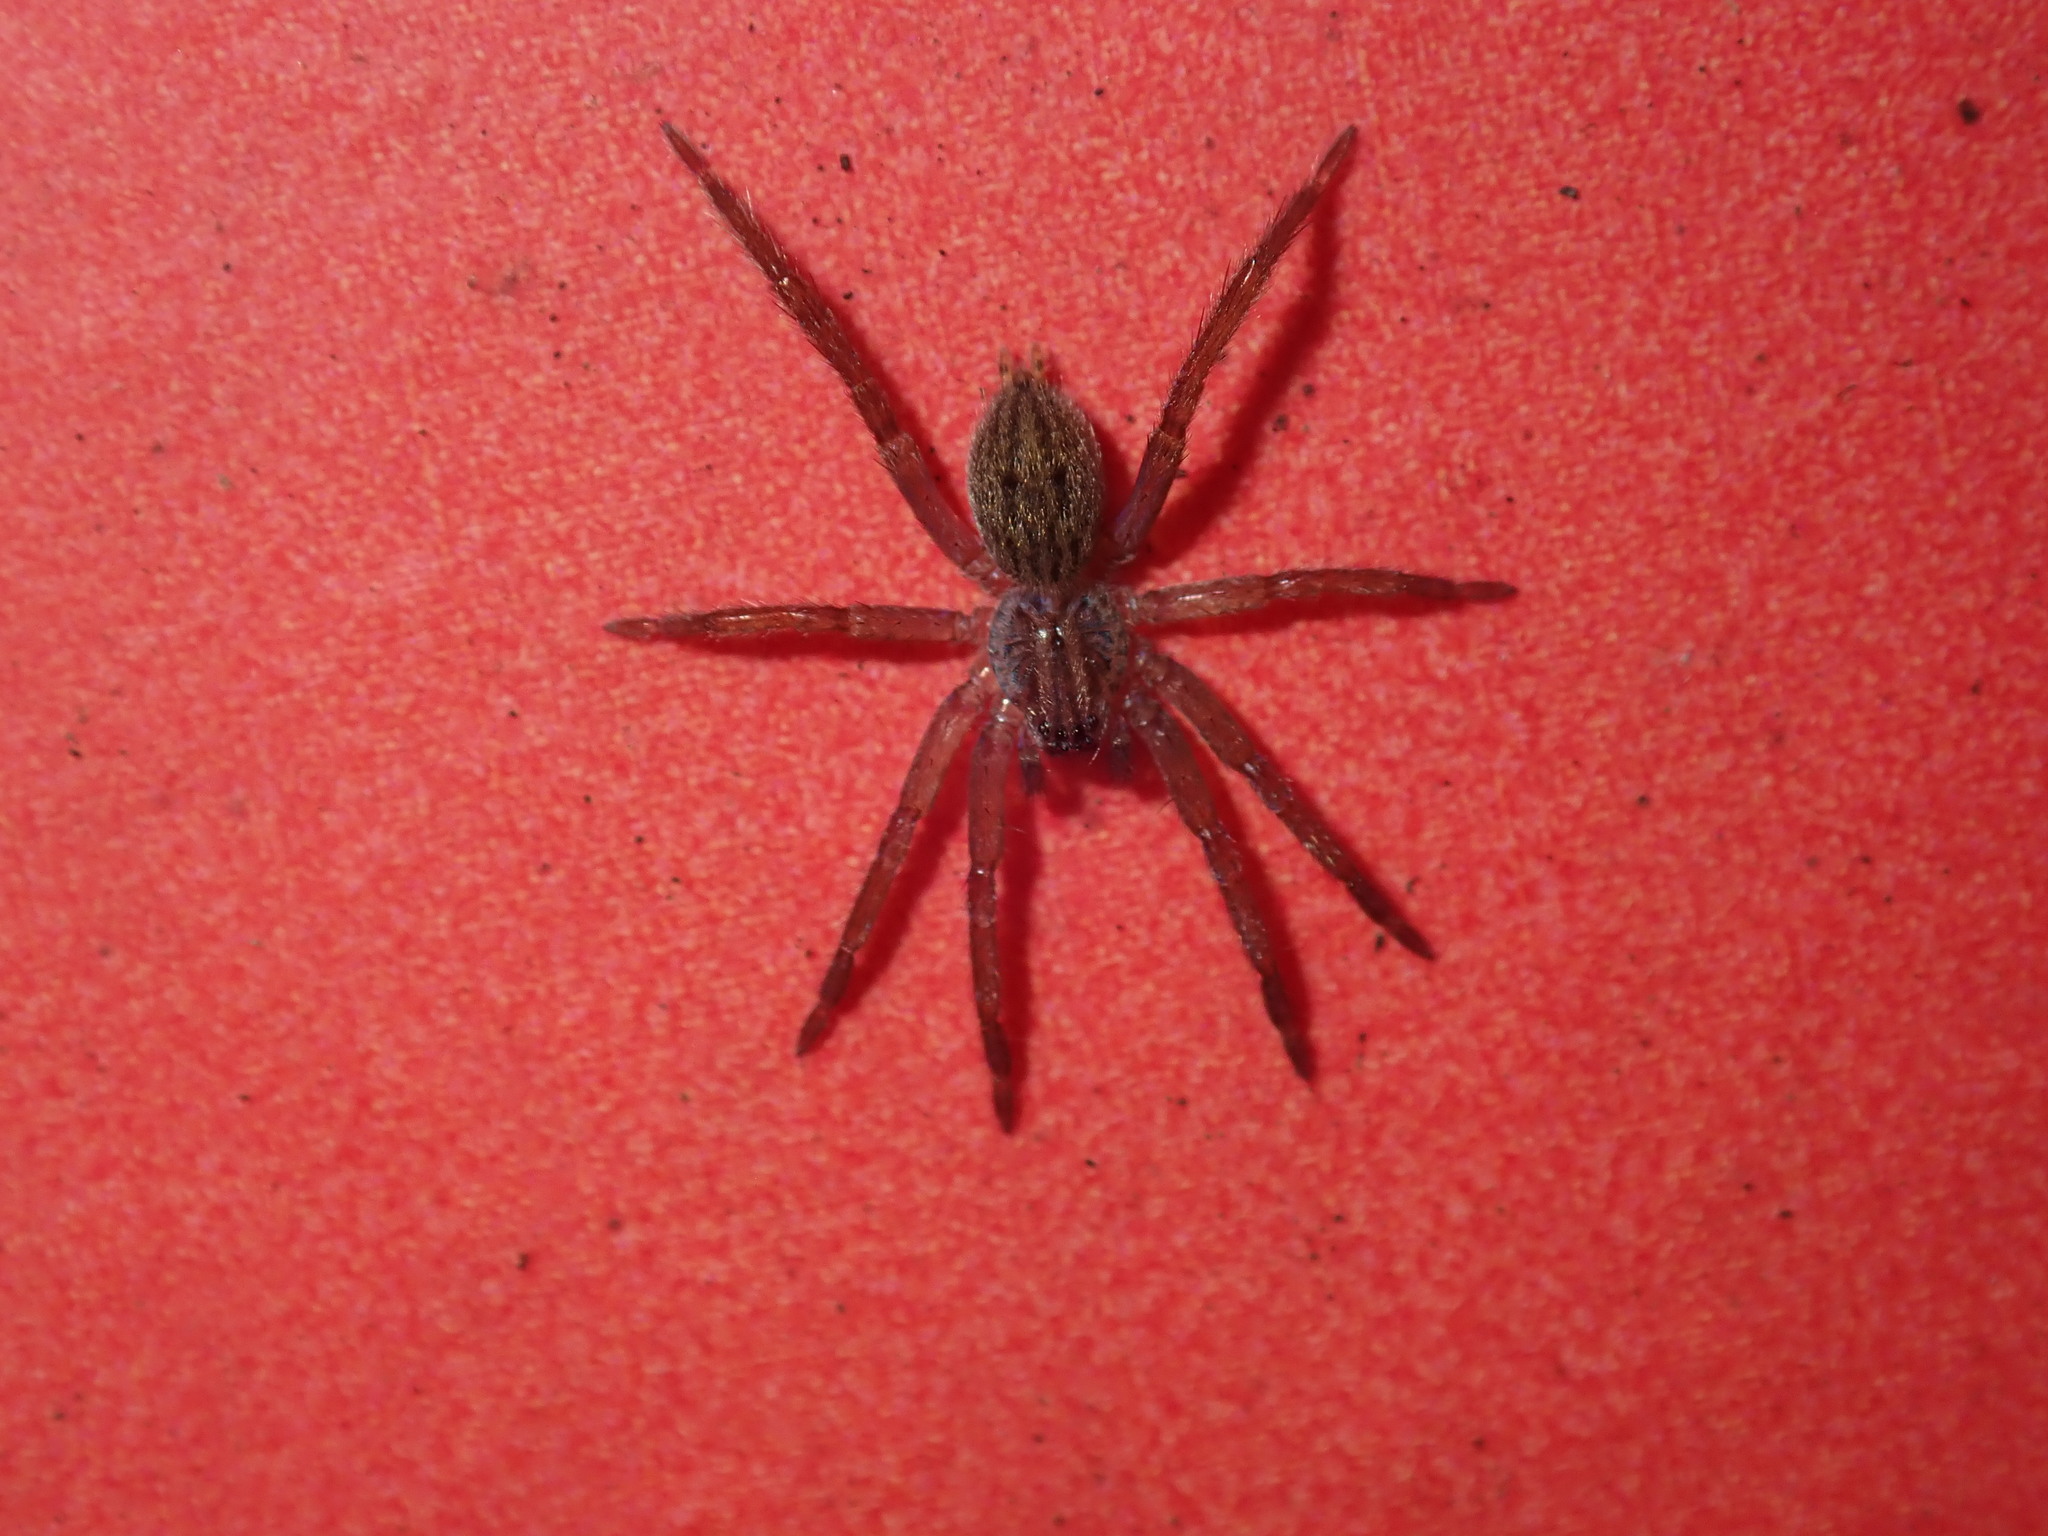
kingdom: Animalia
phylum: Arthropoda
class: Arachnida
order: Araneae
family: Miturgidae
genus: Mituliodon
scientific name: Mituliodon tarantulinus
